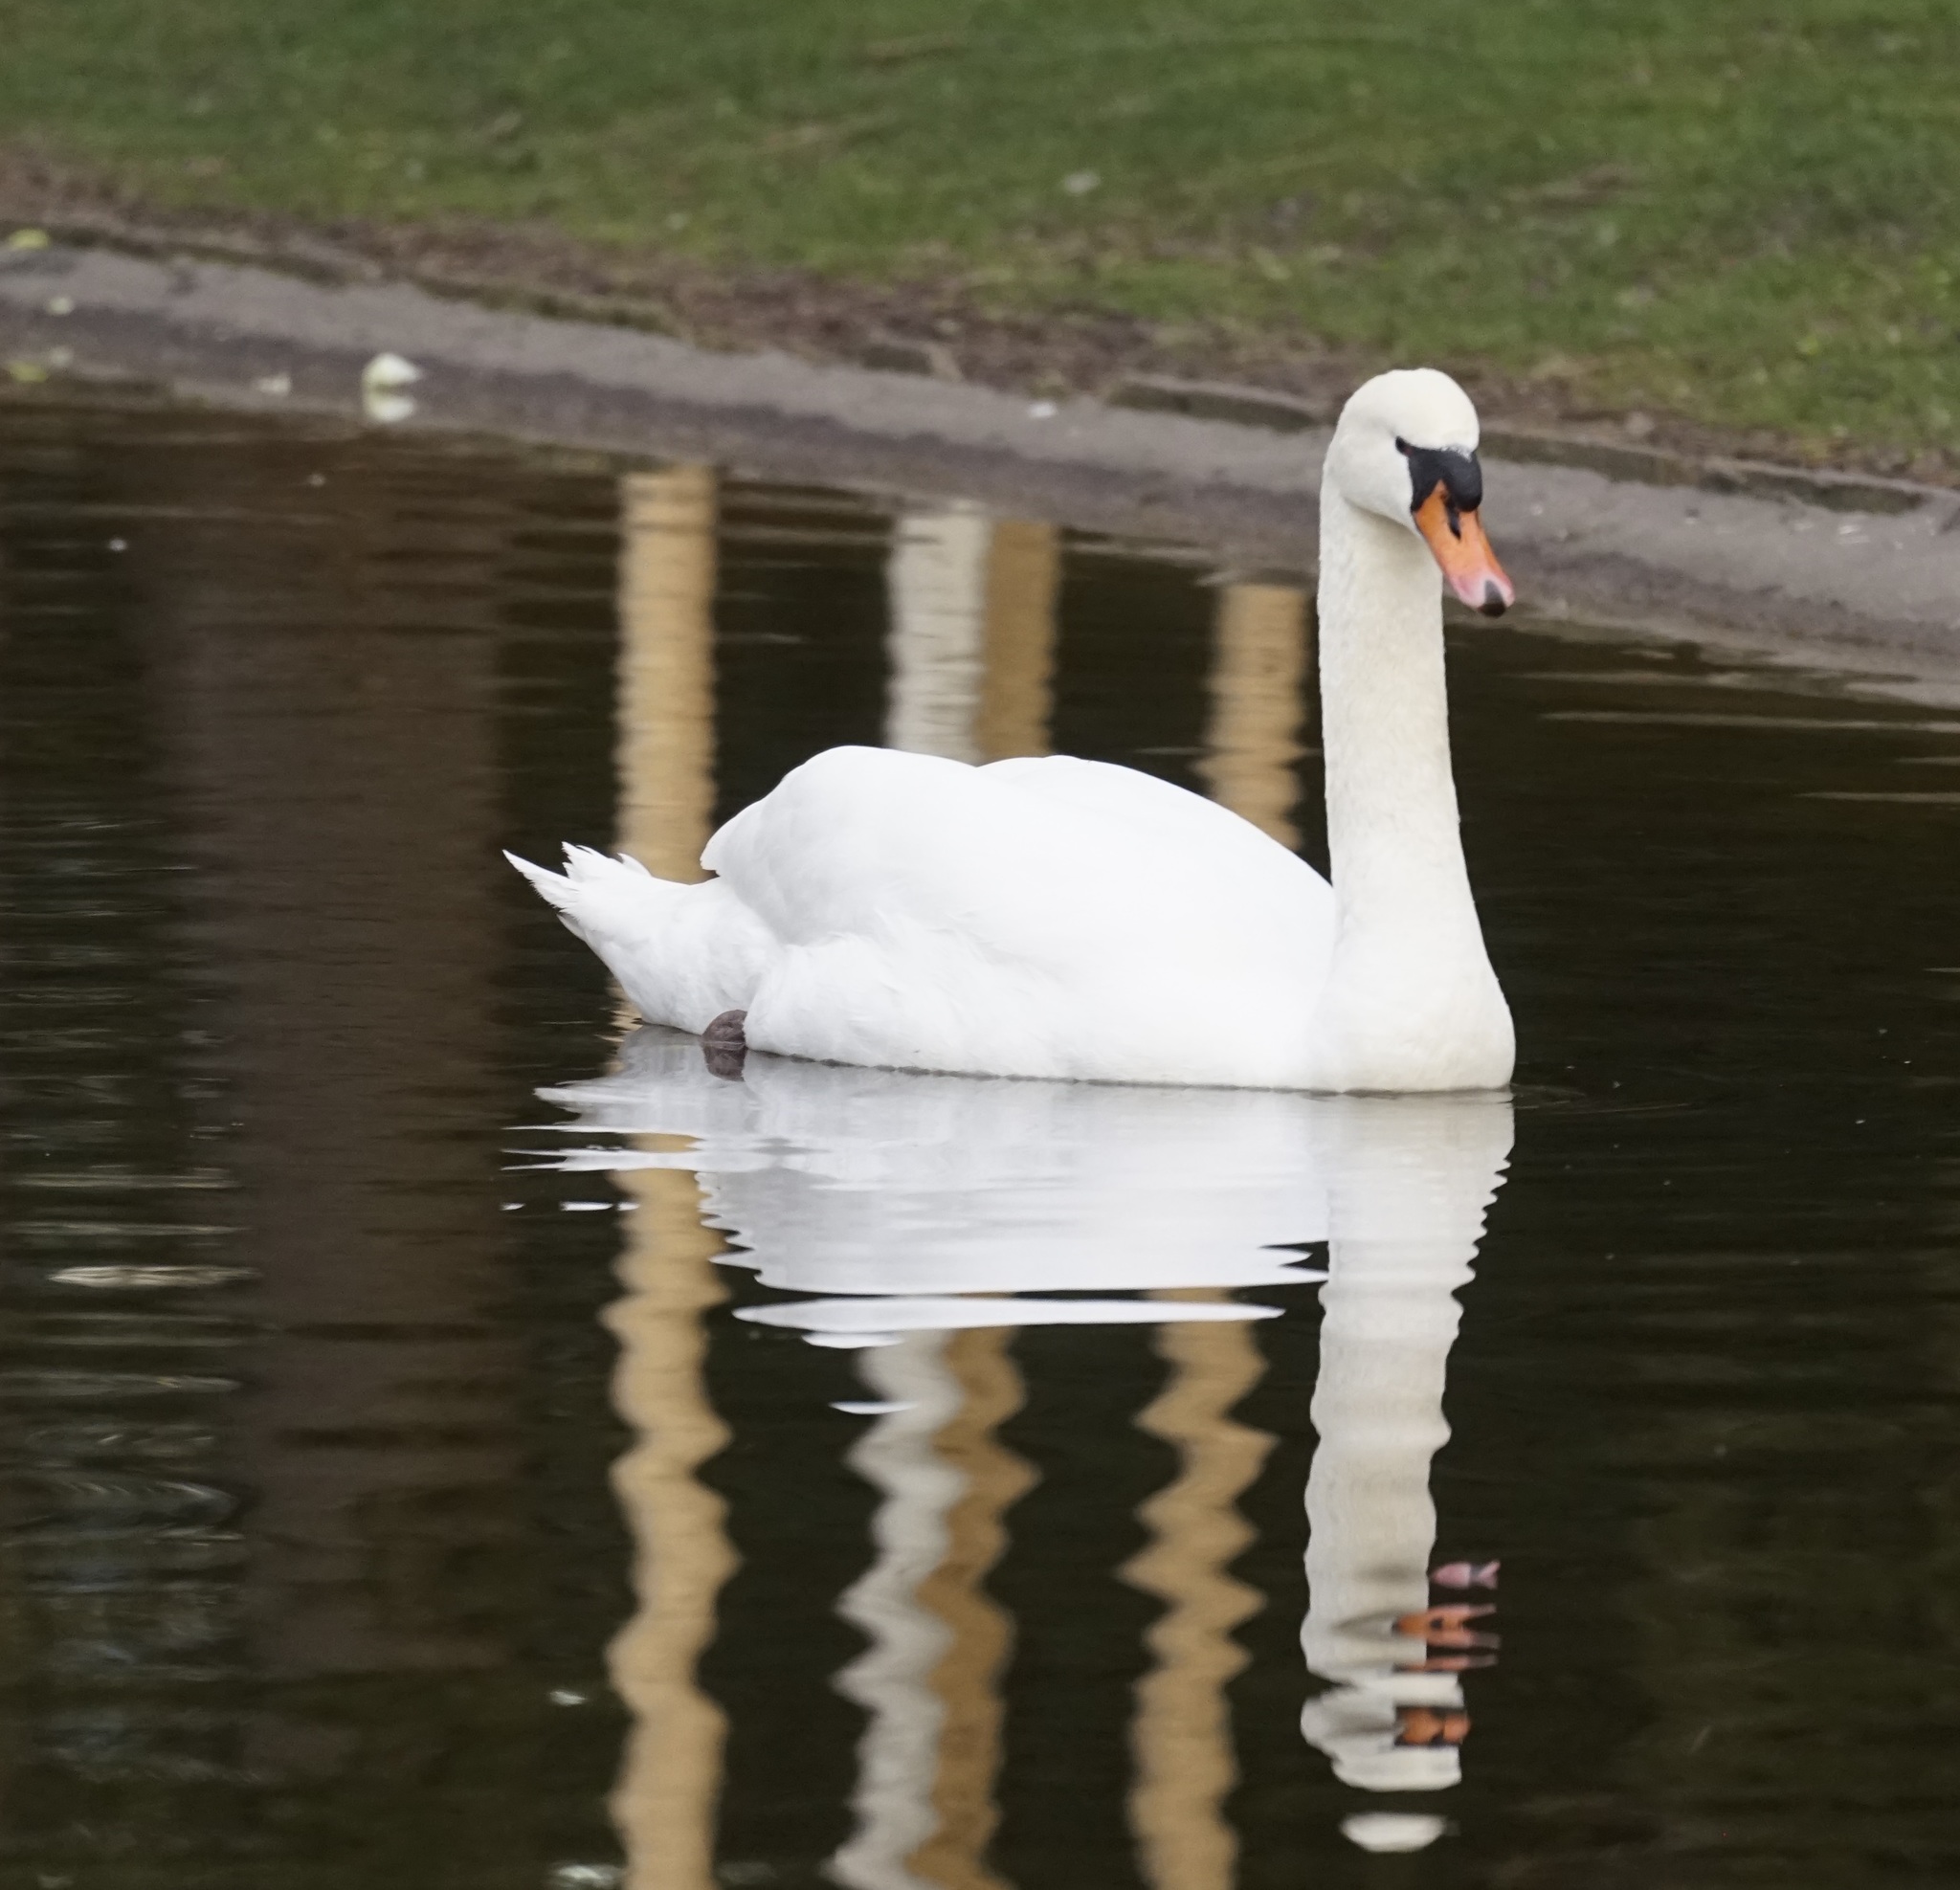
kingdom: Animalia
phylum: Chordata
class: Aves
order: Anseriformes
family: Anatidae
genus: Cygnus
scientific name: Cygnus olor
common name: Mute swan
